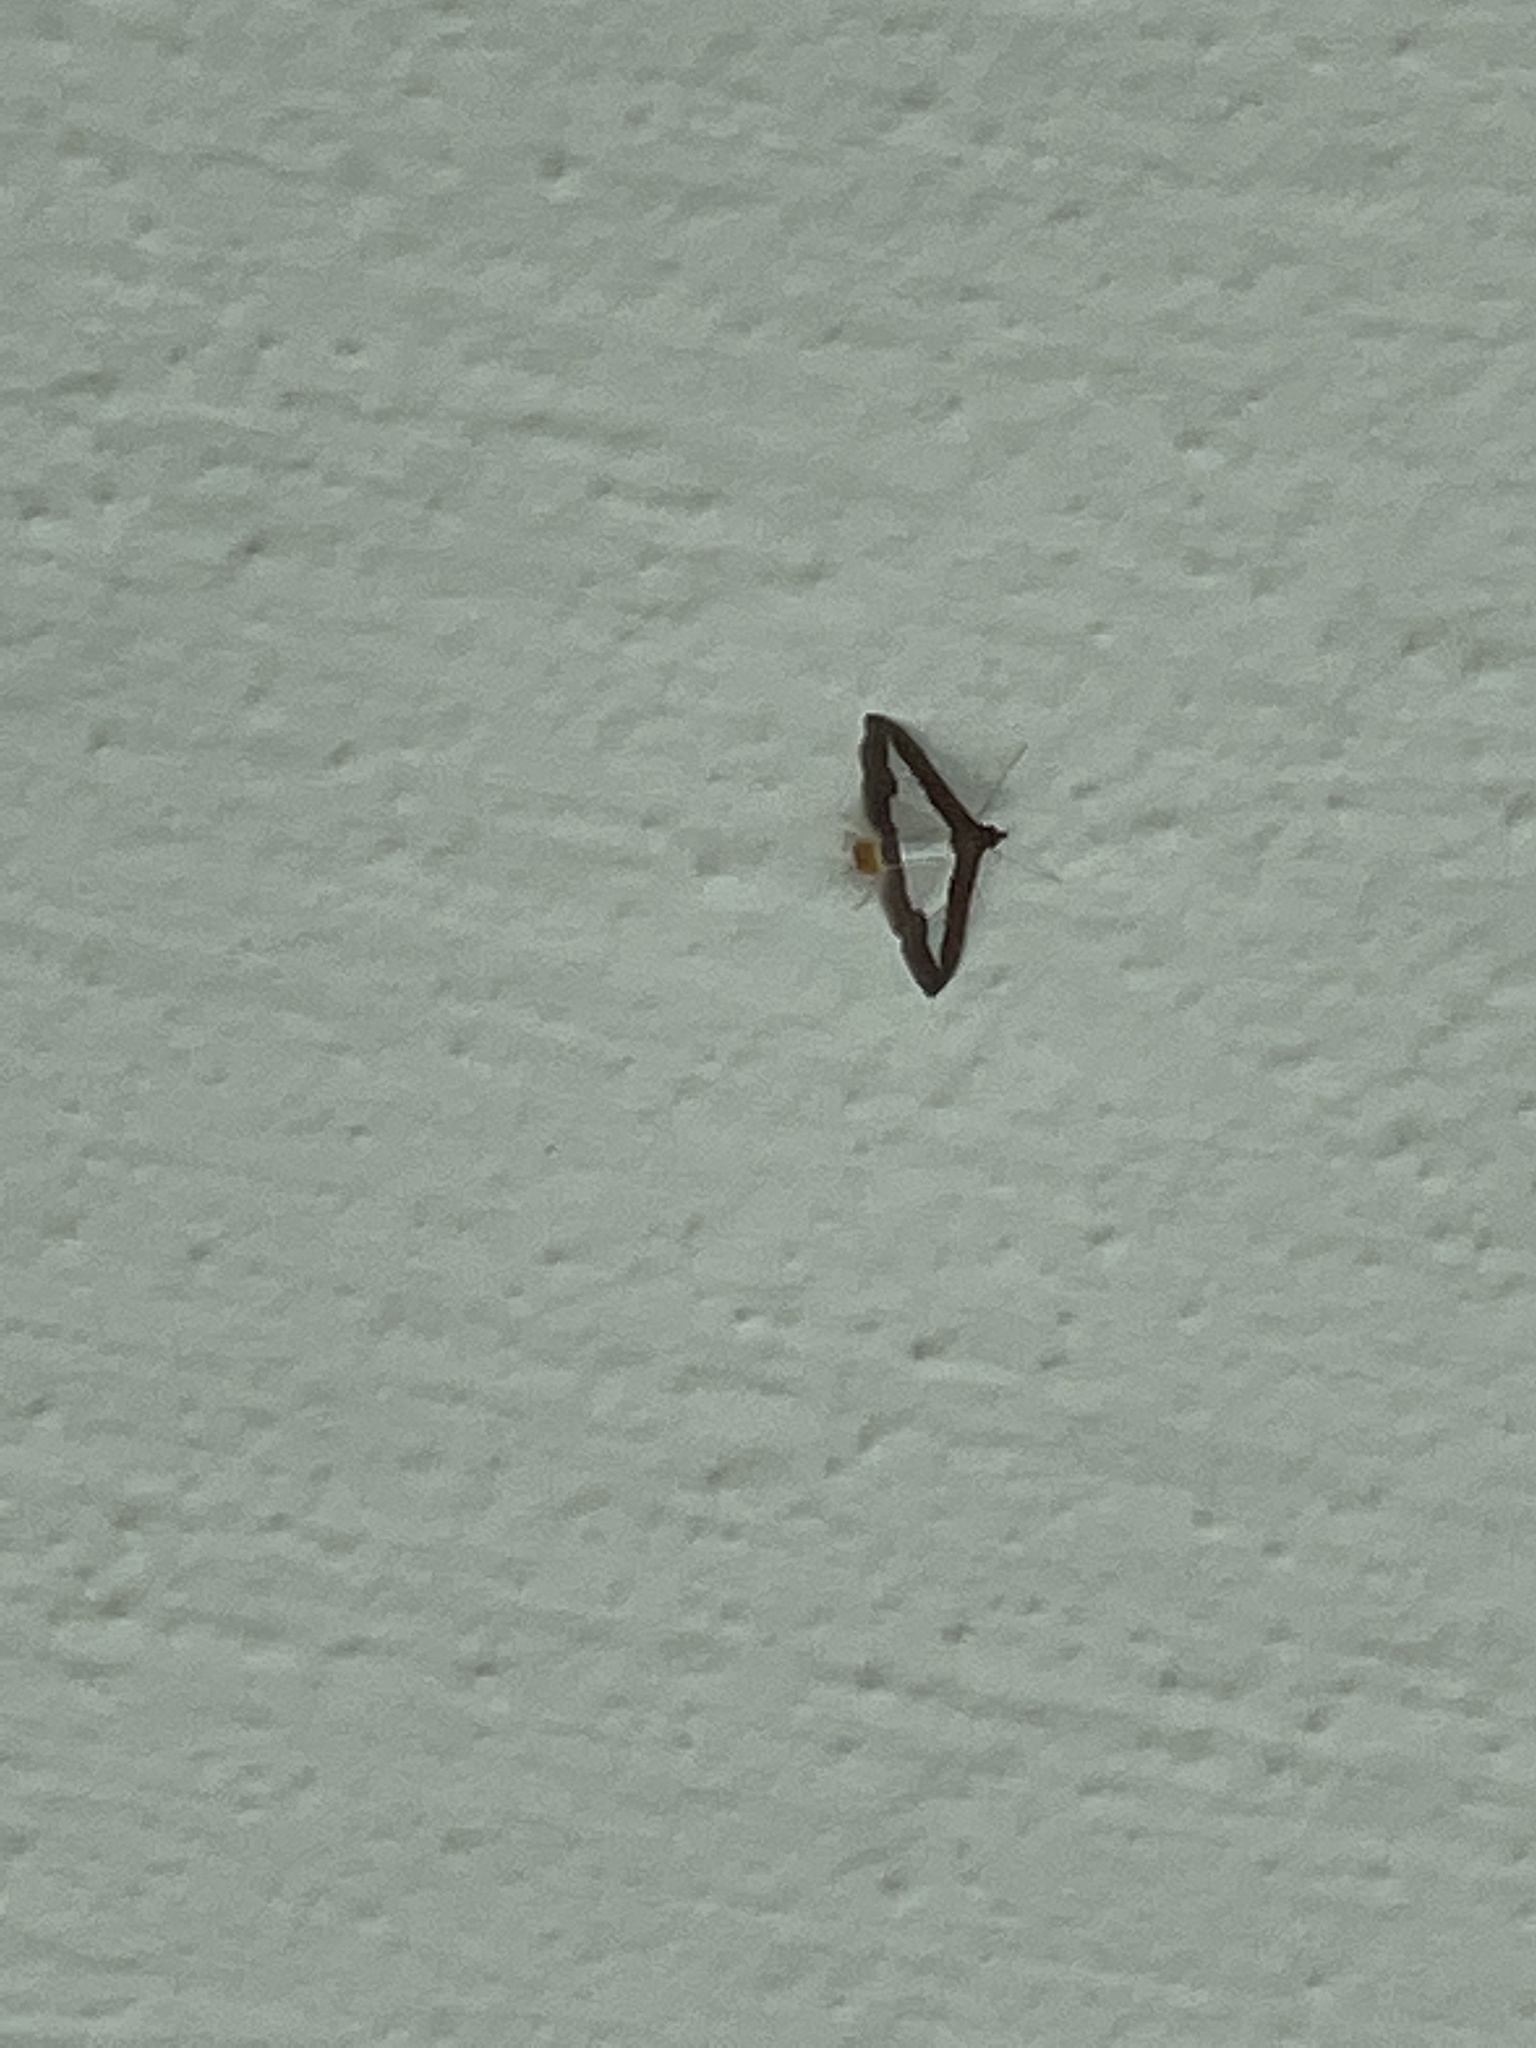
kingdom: Animalia
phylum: Arthropoda
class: Insecta
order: Lepidoptera
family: Crambidae
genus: Diaphania
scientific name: Diaphania indica
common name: Cucumber moth
